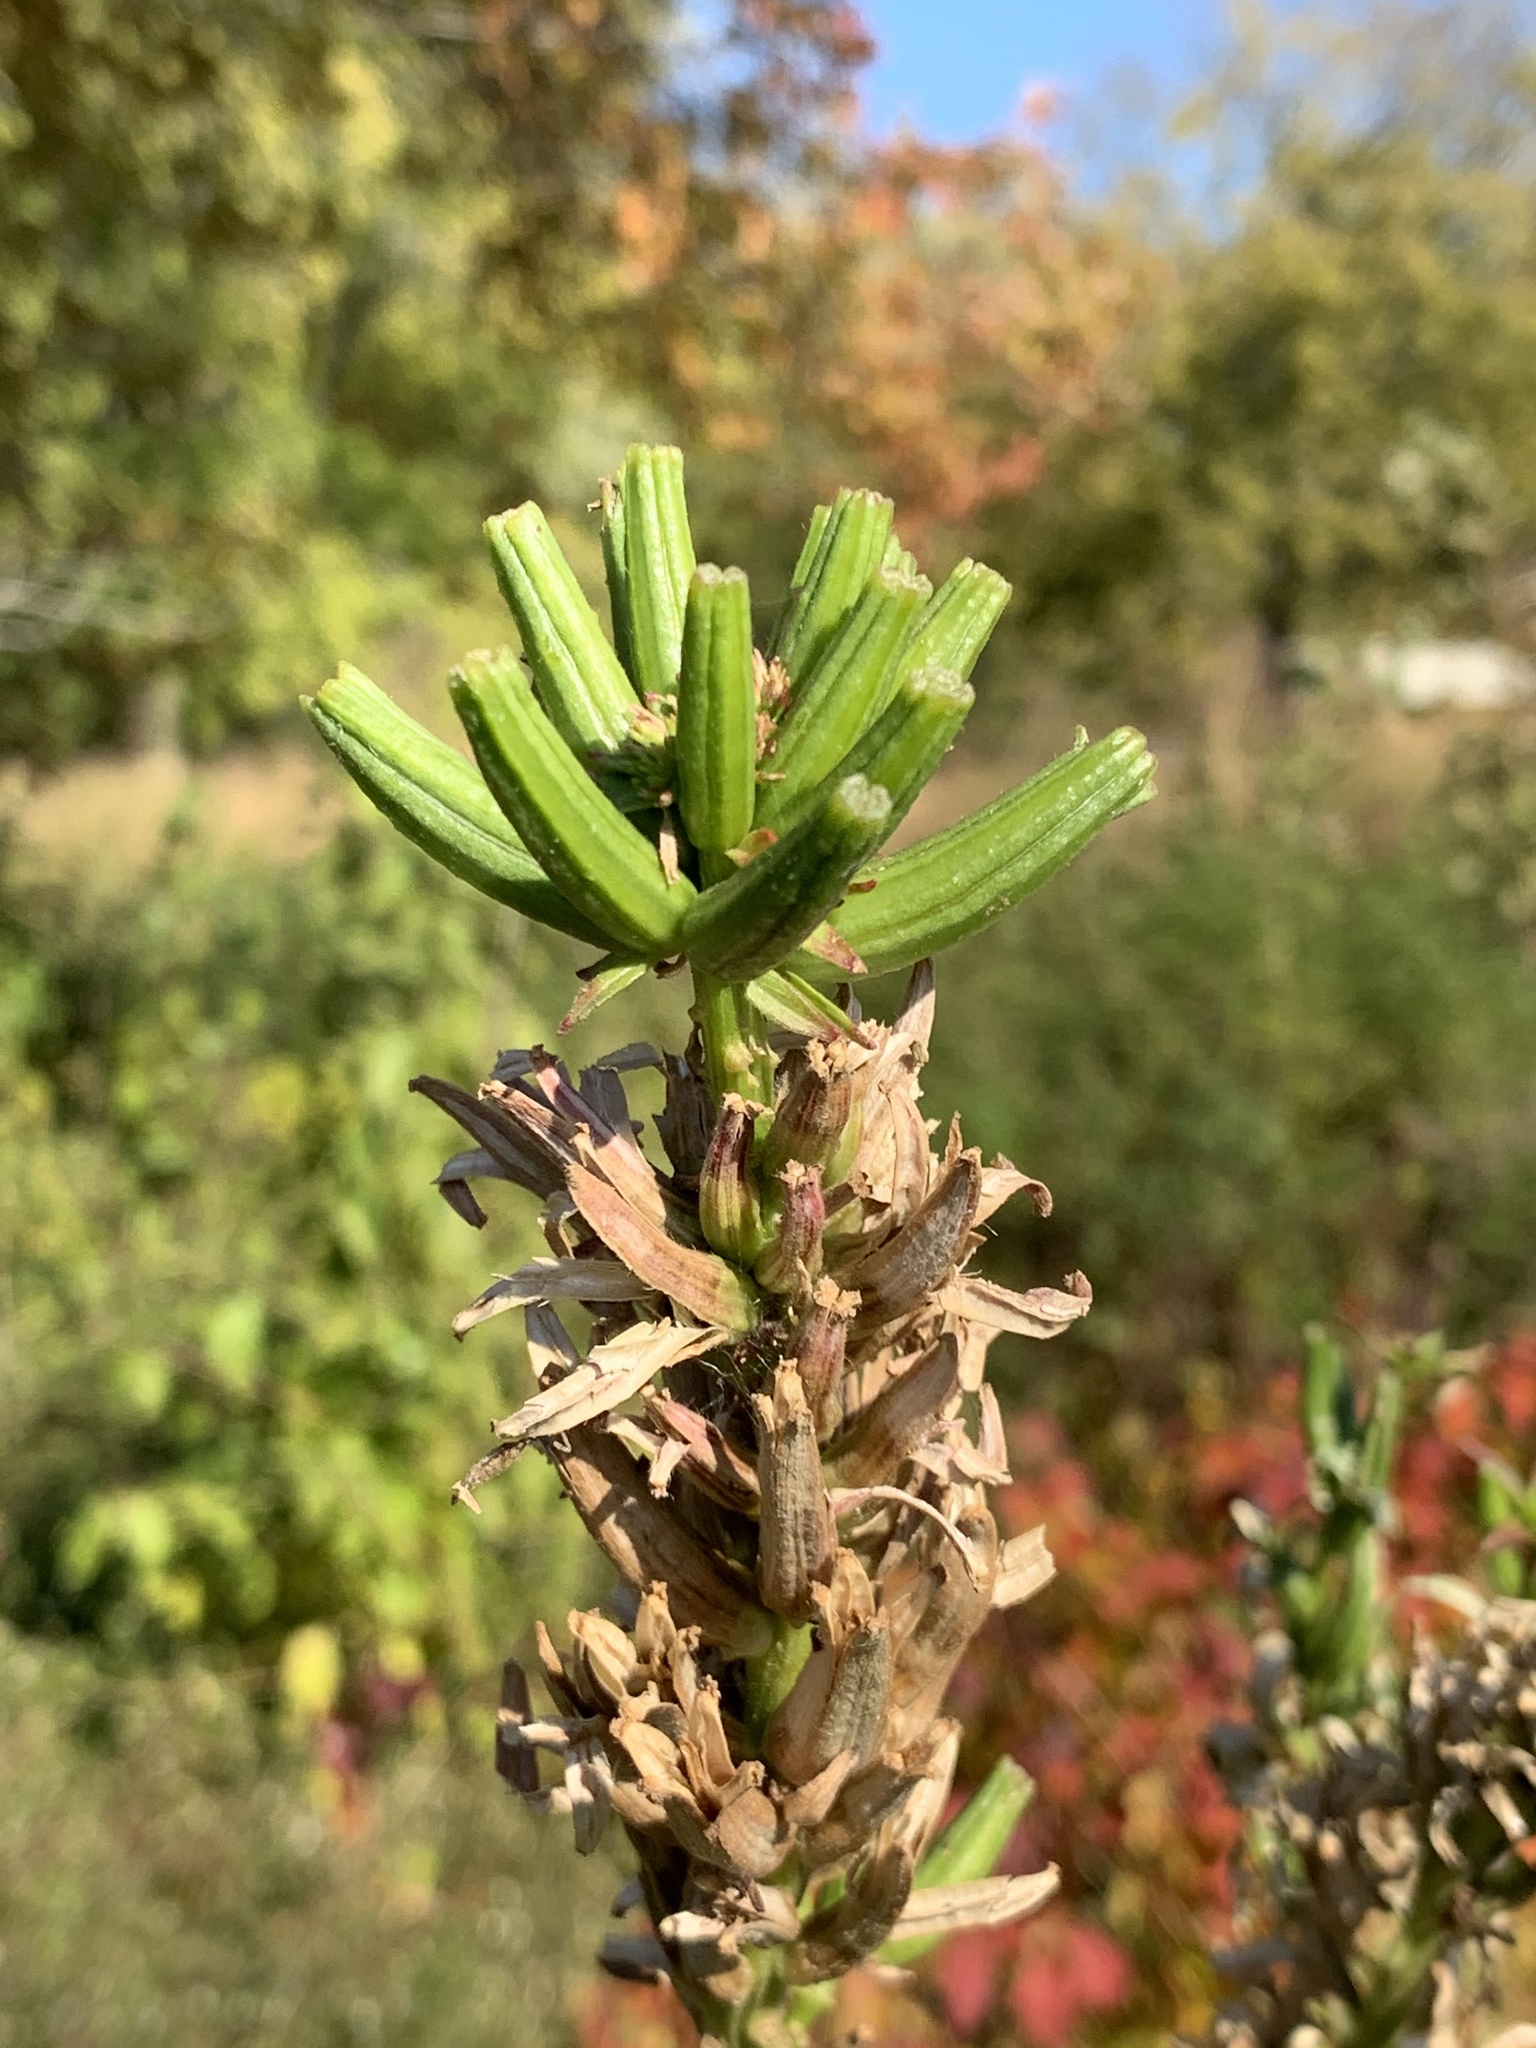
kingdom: Plantae
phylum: Tracheophyta
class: Magnoliopsida
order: Myrtales
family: Onagraceae
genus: Oenothera
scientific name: Oenothera biennis
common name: Common evening-primrose
